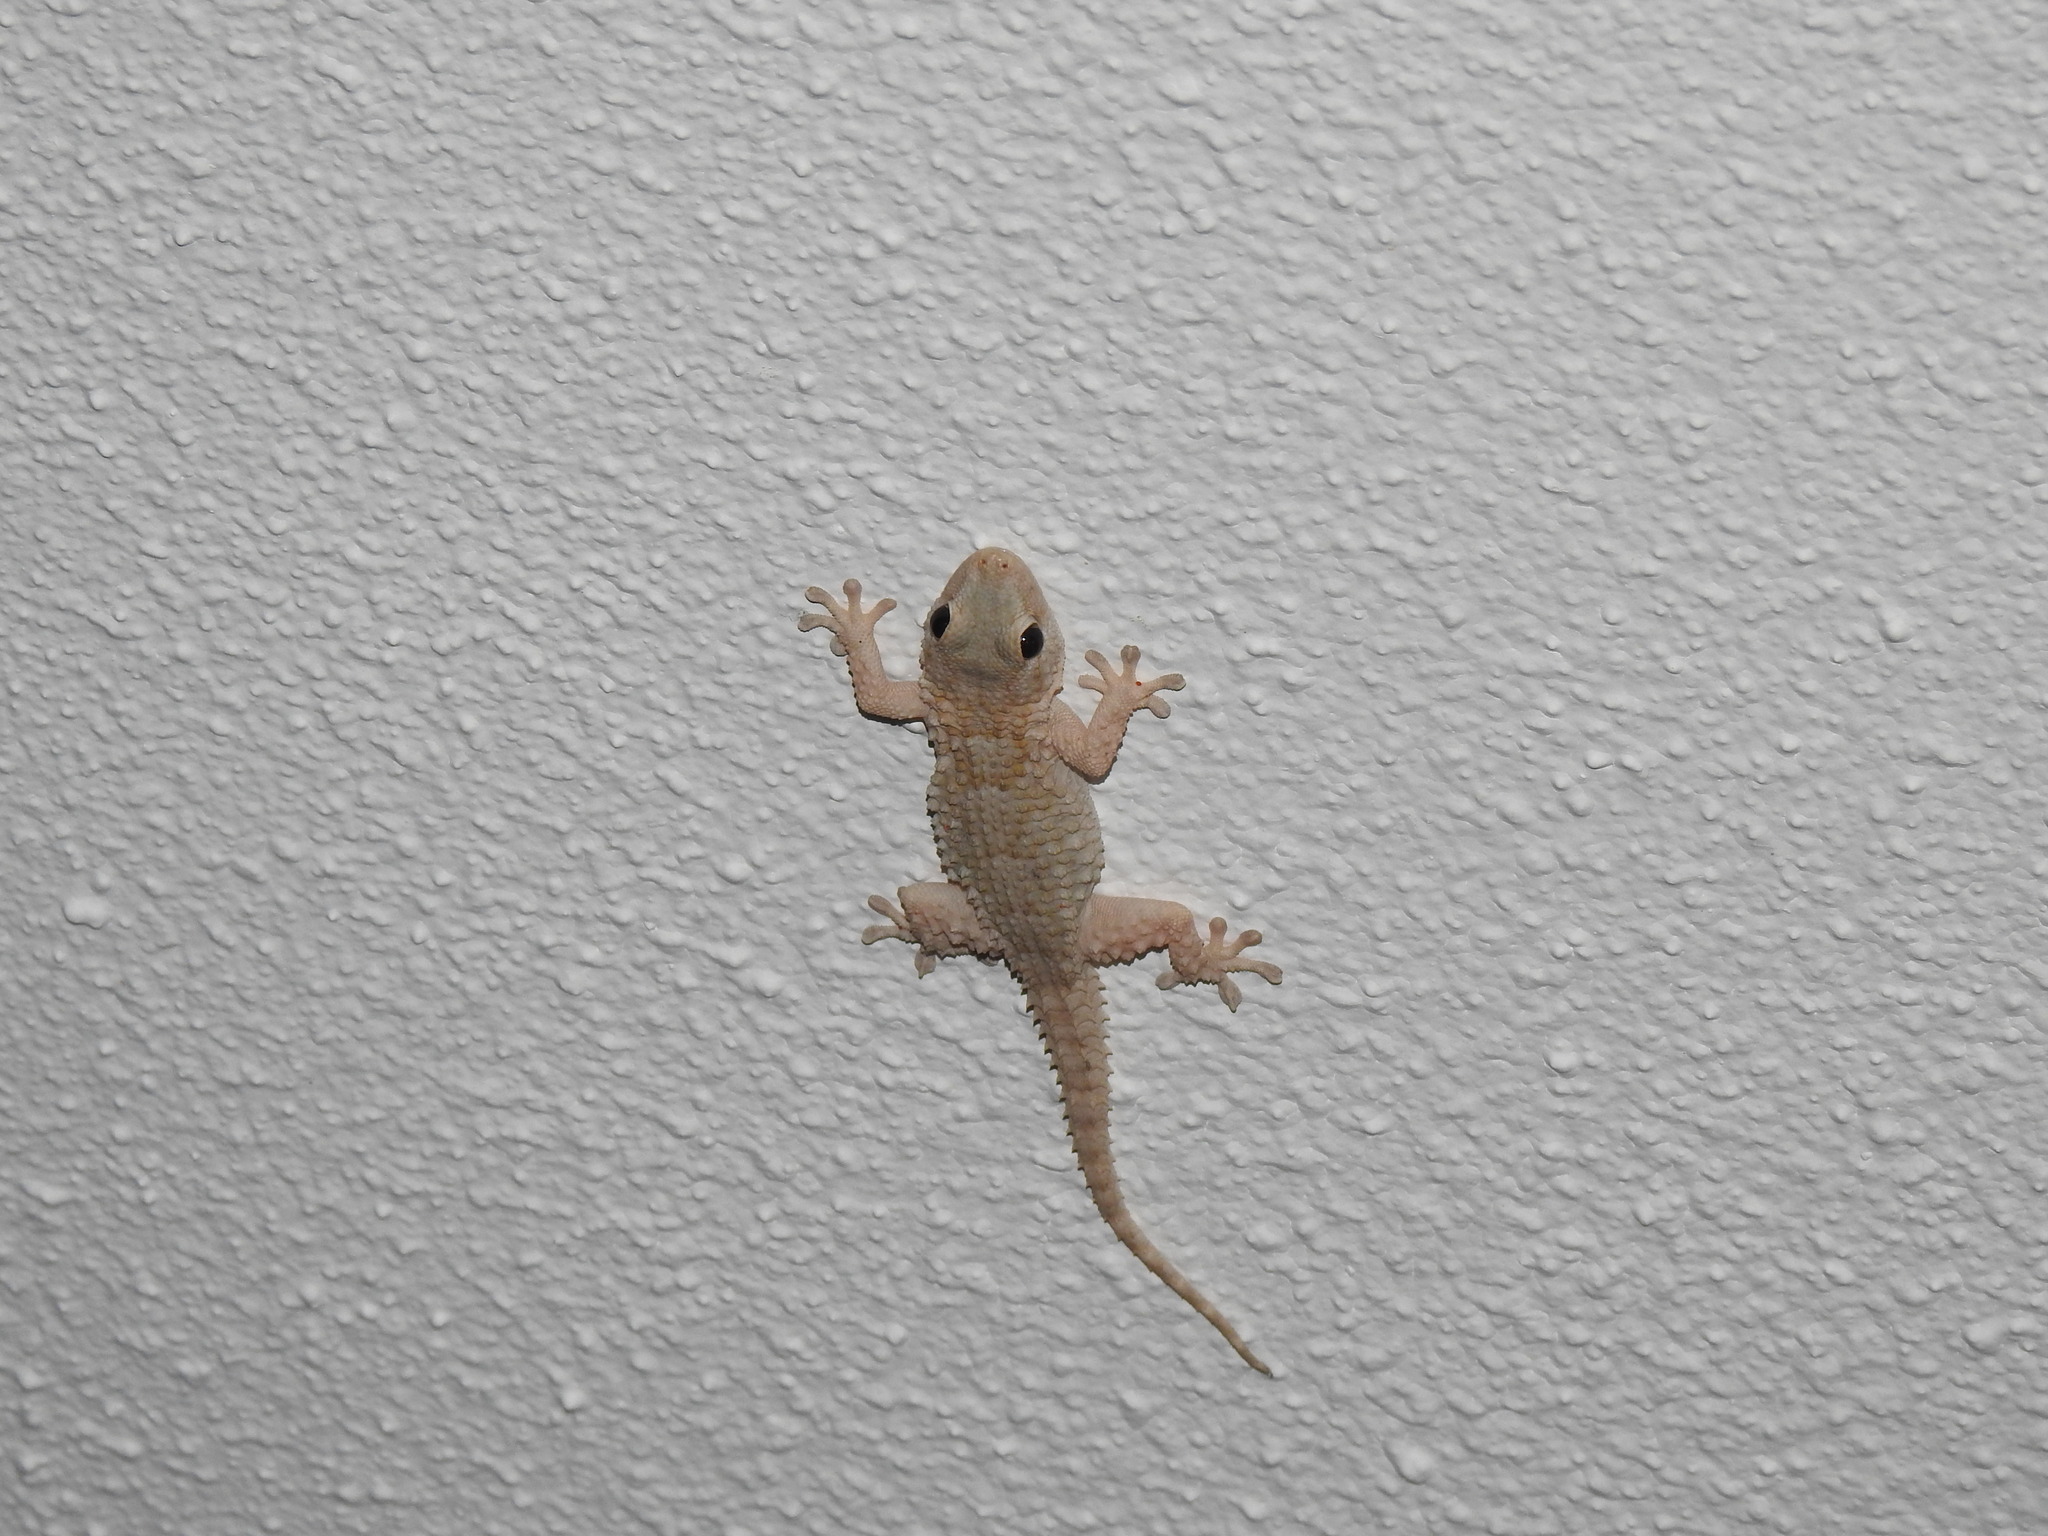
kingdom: Animalia
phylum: Chordata
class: Squamata
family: Phyllodactylidae
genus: Tarentola
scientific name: Tarentola mauritanica
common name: Moorish gecko
